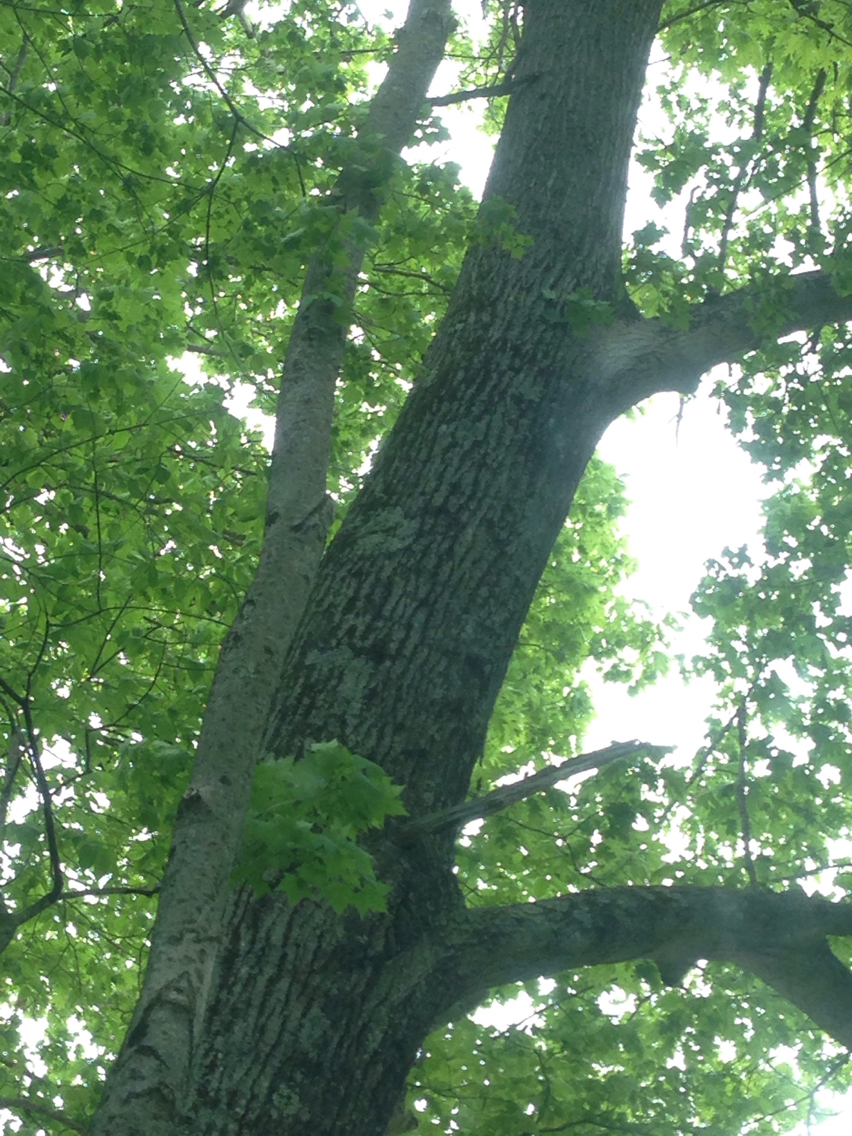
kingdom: Plantae
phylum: Tracheophyta
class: Magnoliopsida
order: Fagales
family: Fagaceae
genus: Quercus
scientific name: Quercus rubra
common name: Red oak
